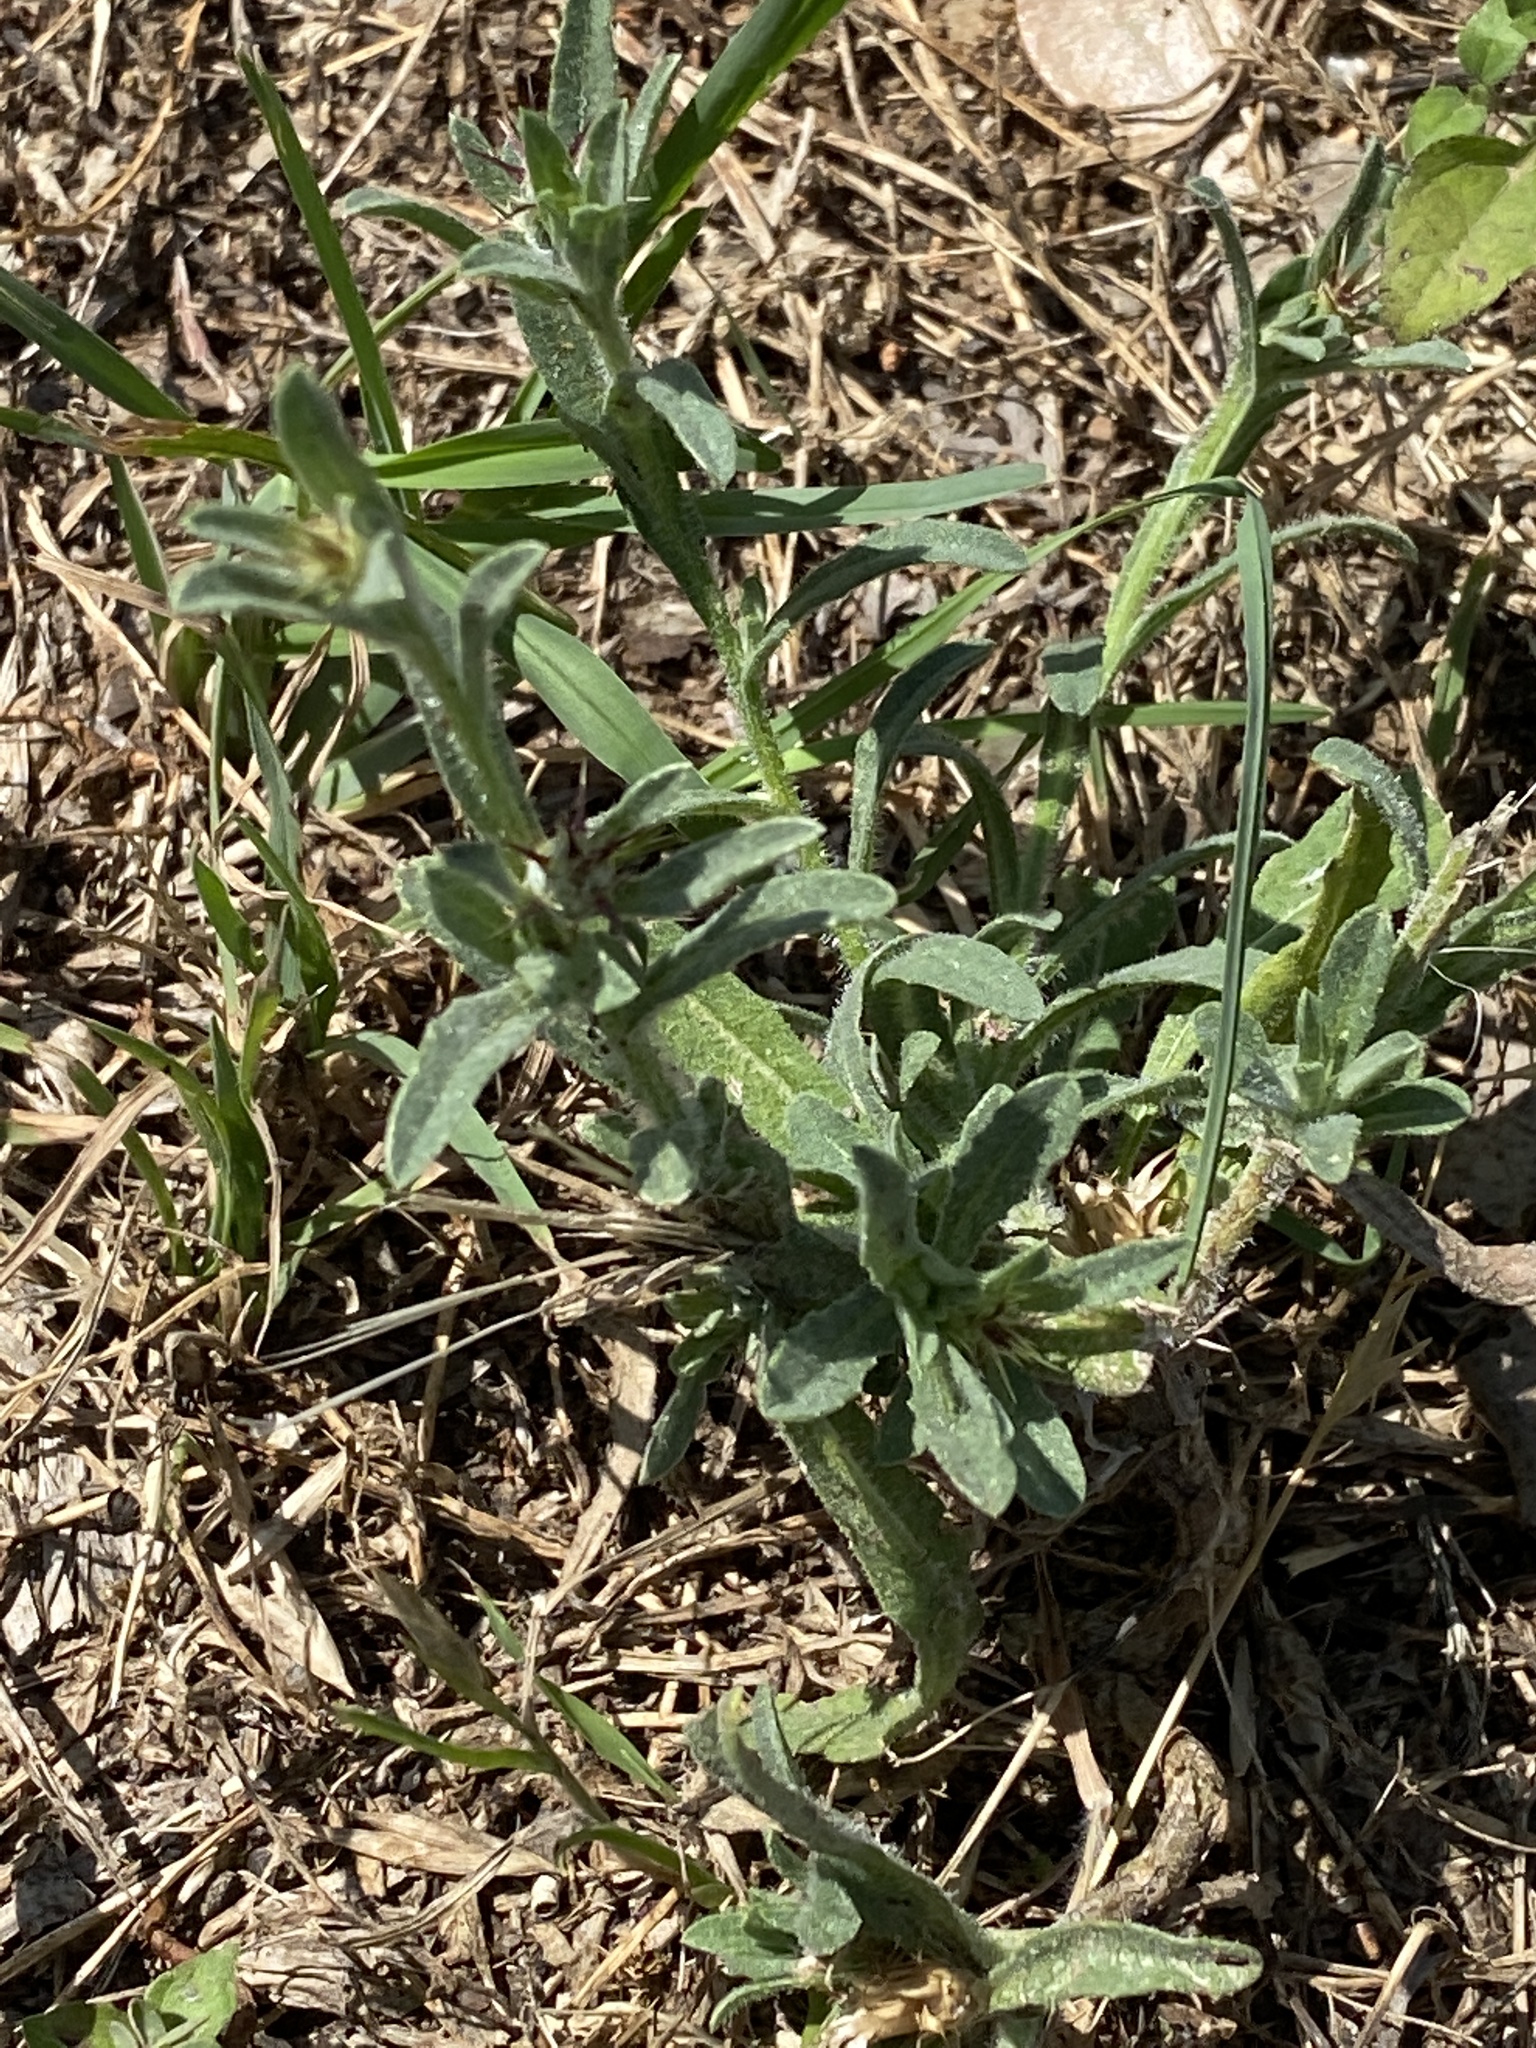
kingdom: Plantae
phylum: Tracheophyta
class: Magnoliopsida
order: Asterales
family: Asteraceae
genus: Centaurea
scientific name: Centaurea melitensis
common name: Maltese star-thistle
